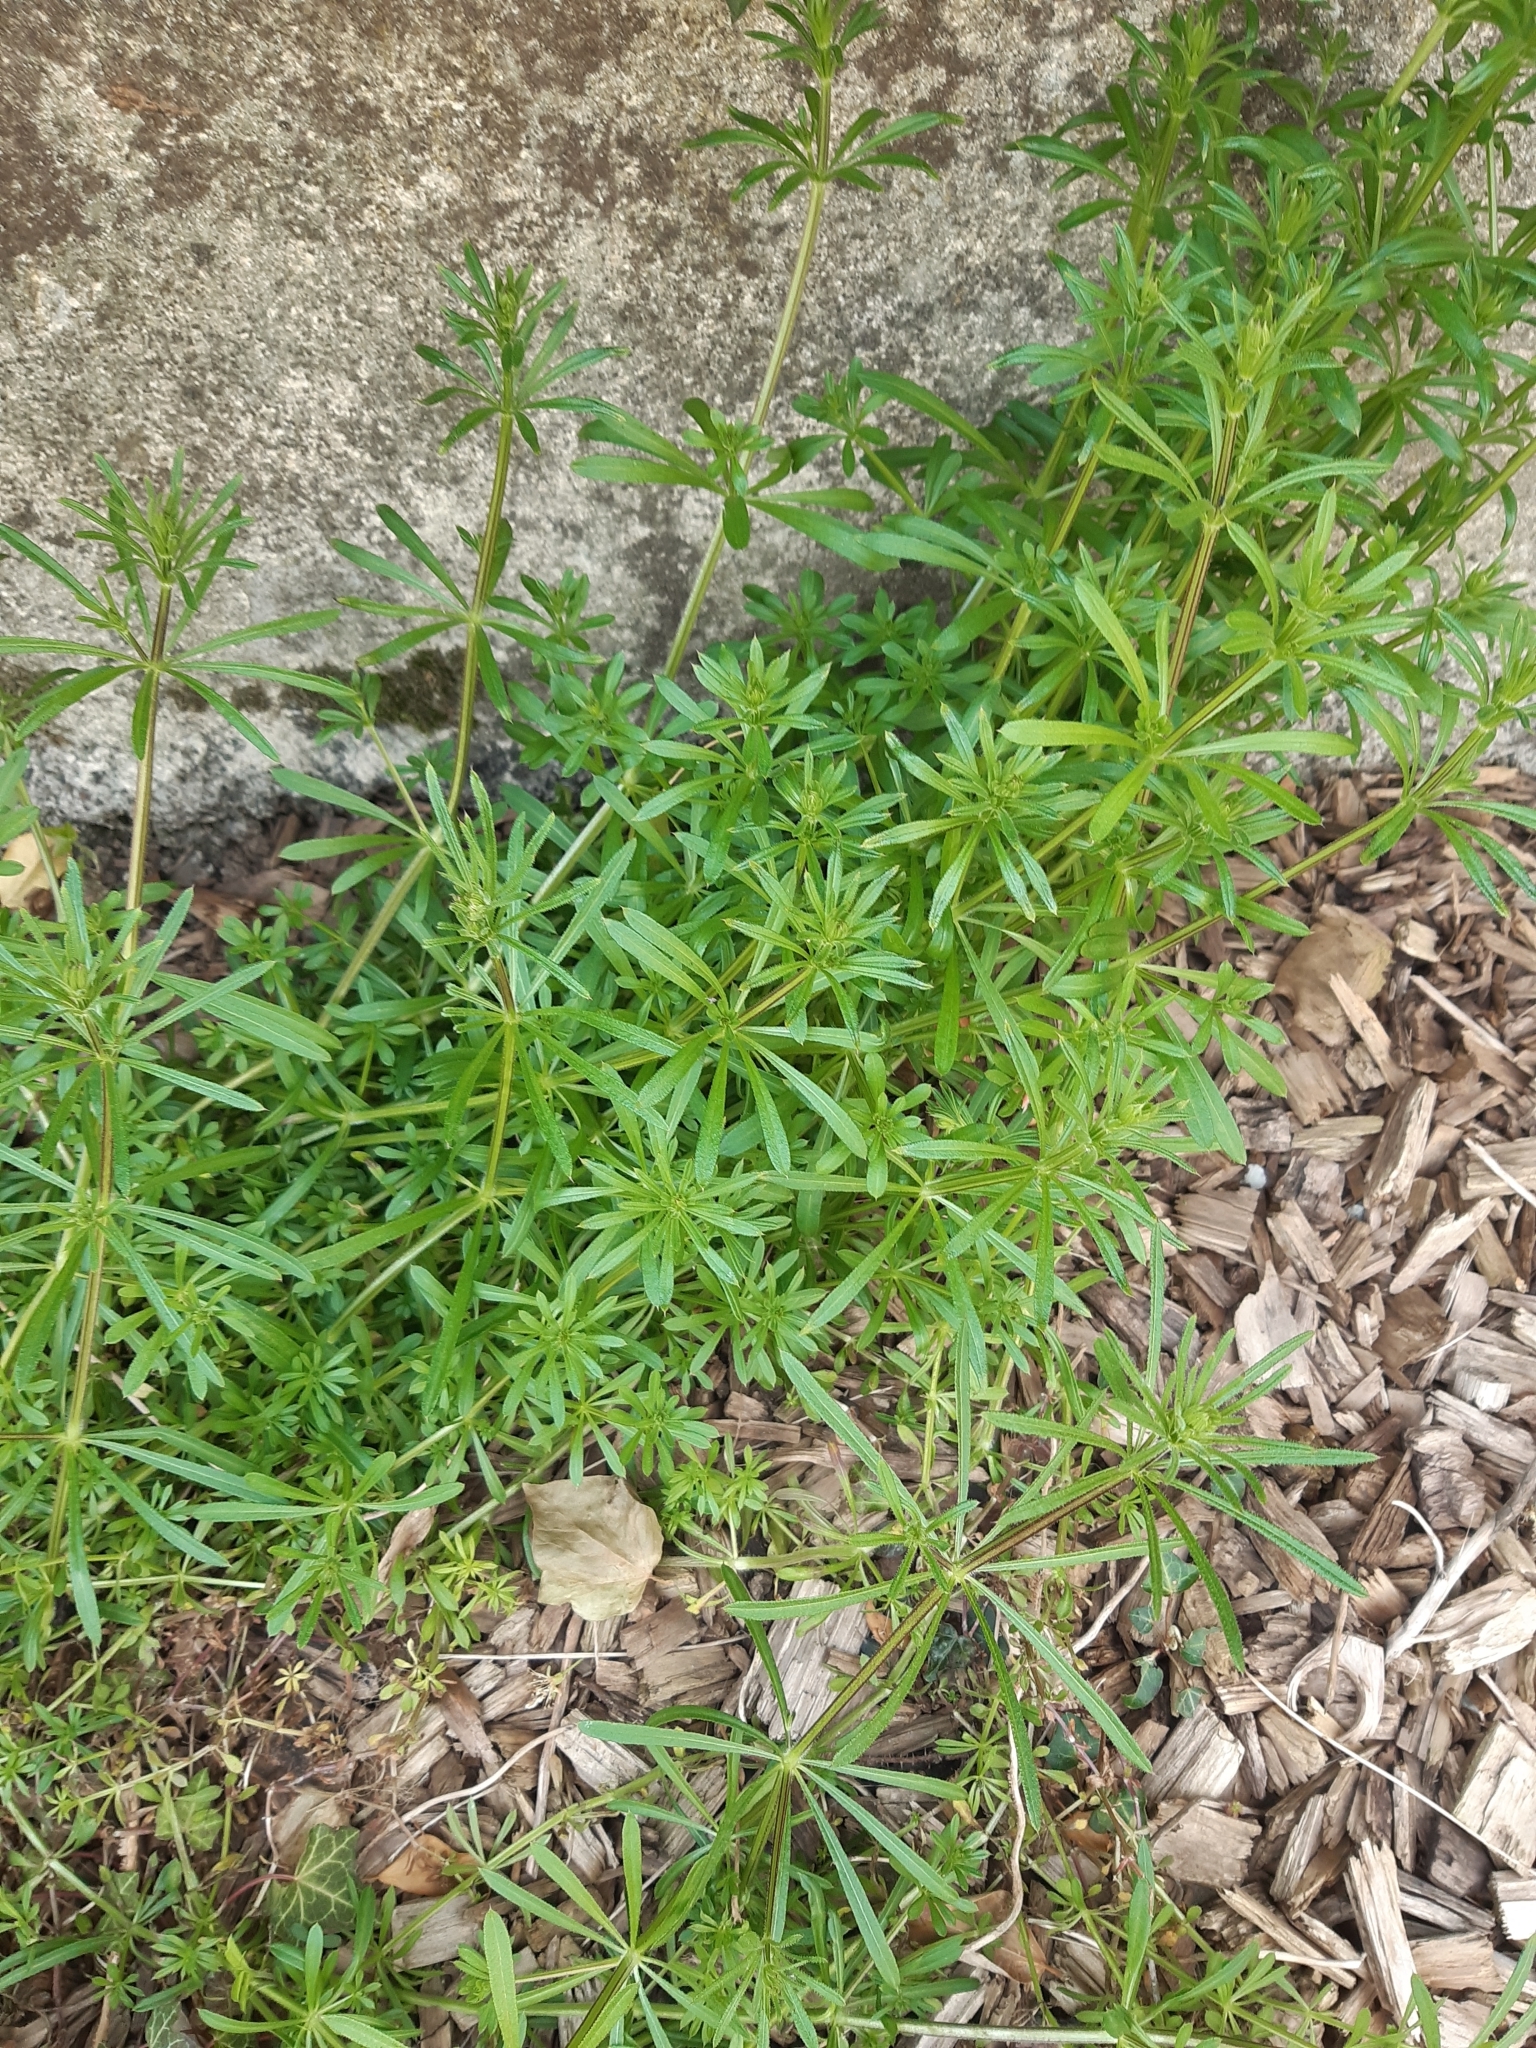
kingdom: Plantae
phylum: Tracheophyta
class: Magnoliopsida
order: Gentianales
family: Rubiaceae
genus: Galium
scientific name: Galium aparine
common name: Cleavers
